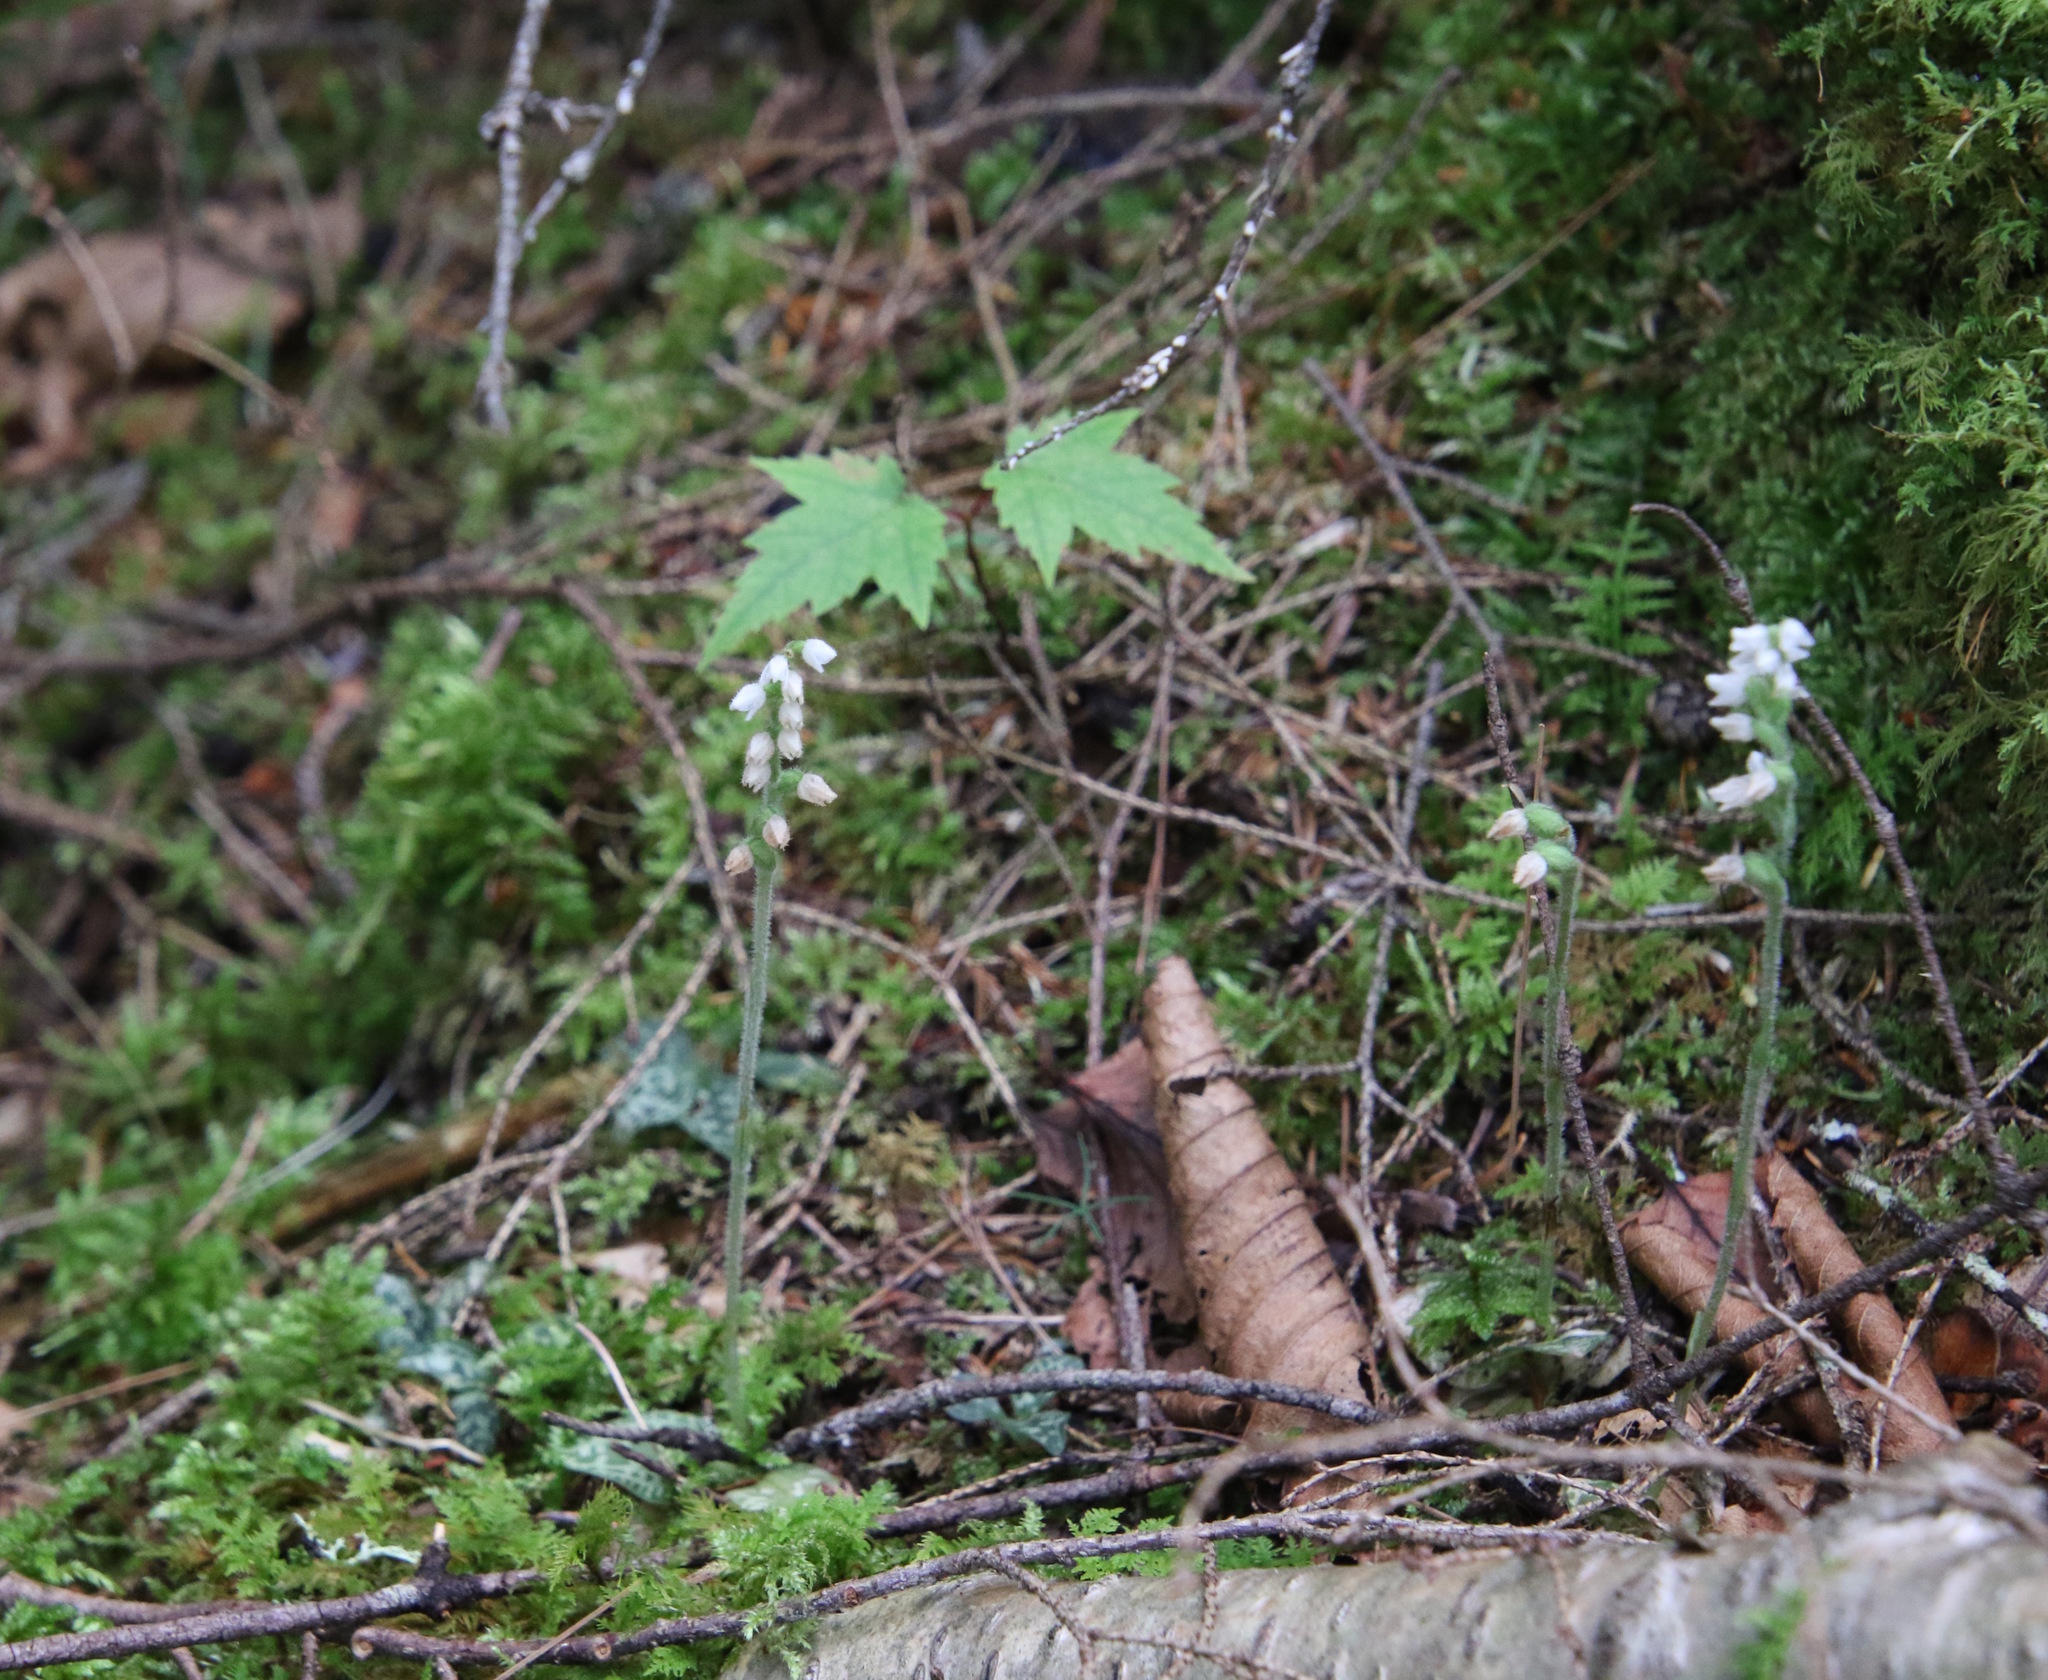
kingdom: Plantae
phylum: Tracheophyta
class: Liliopsida
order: Asparagales
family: Orchidaceae
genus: Goodyera
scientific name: Goodyera repens
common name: Creeping lady's-tresses
